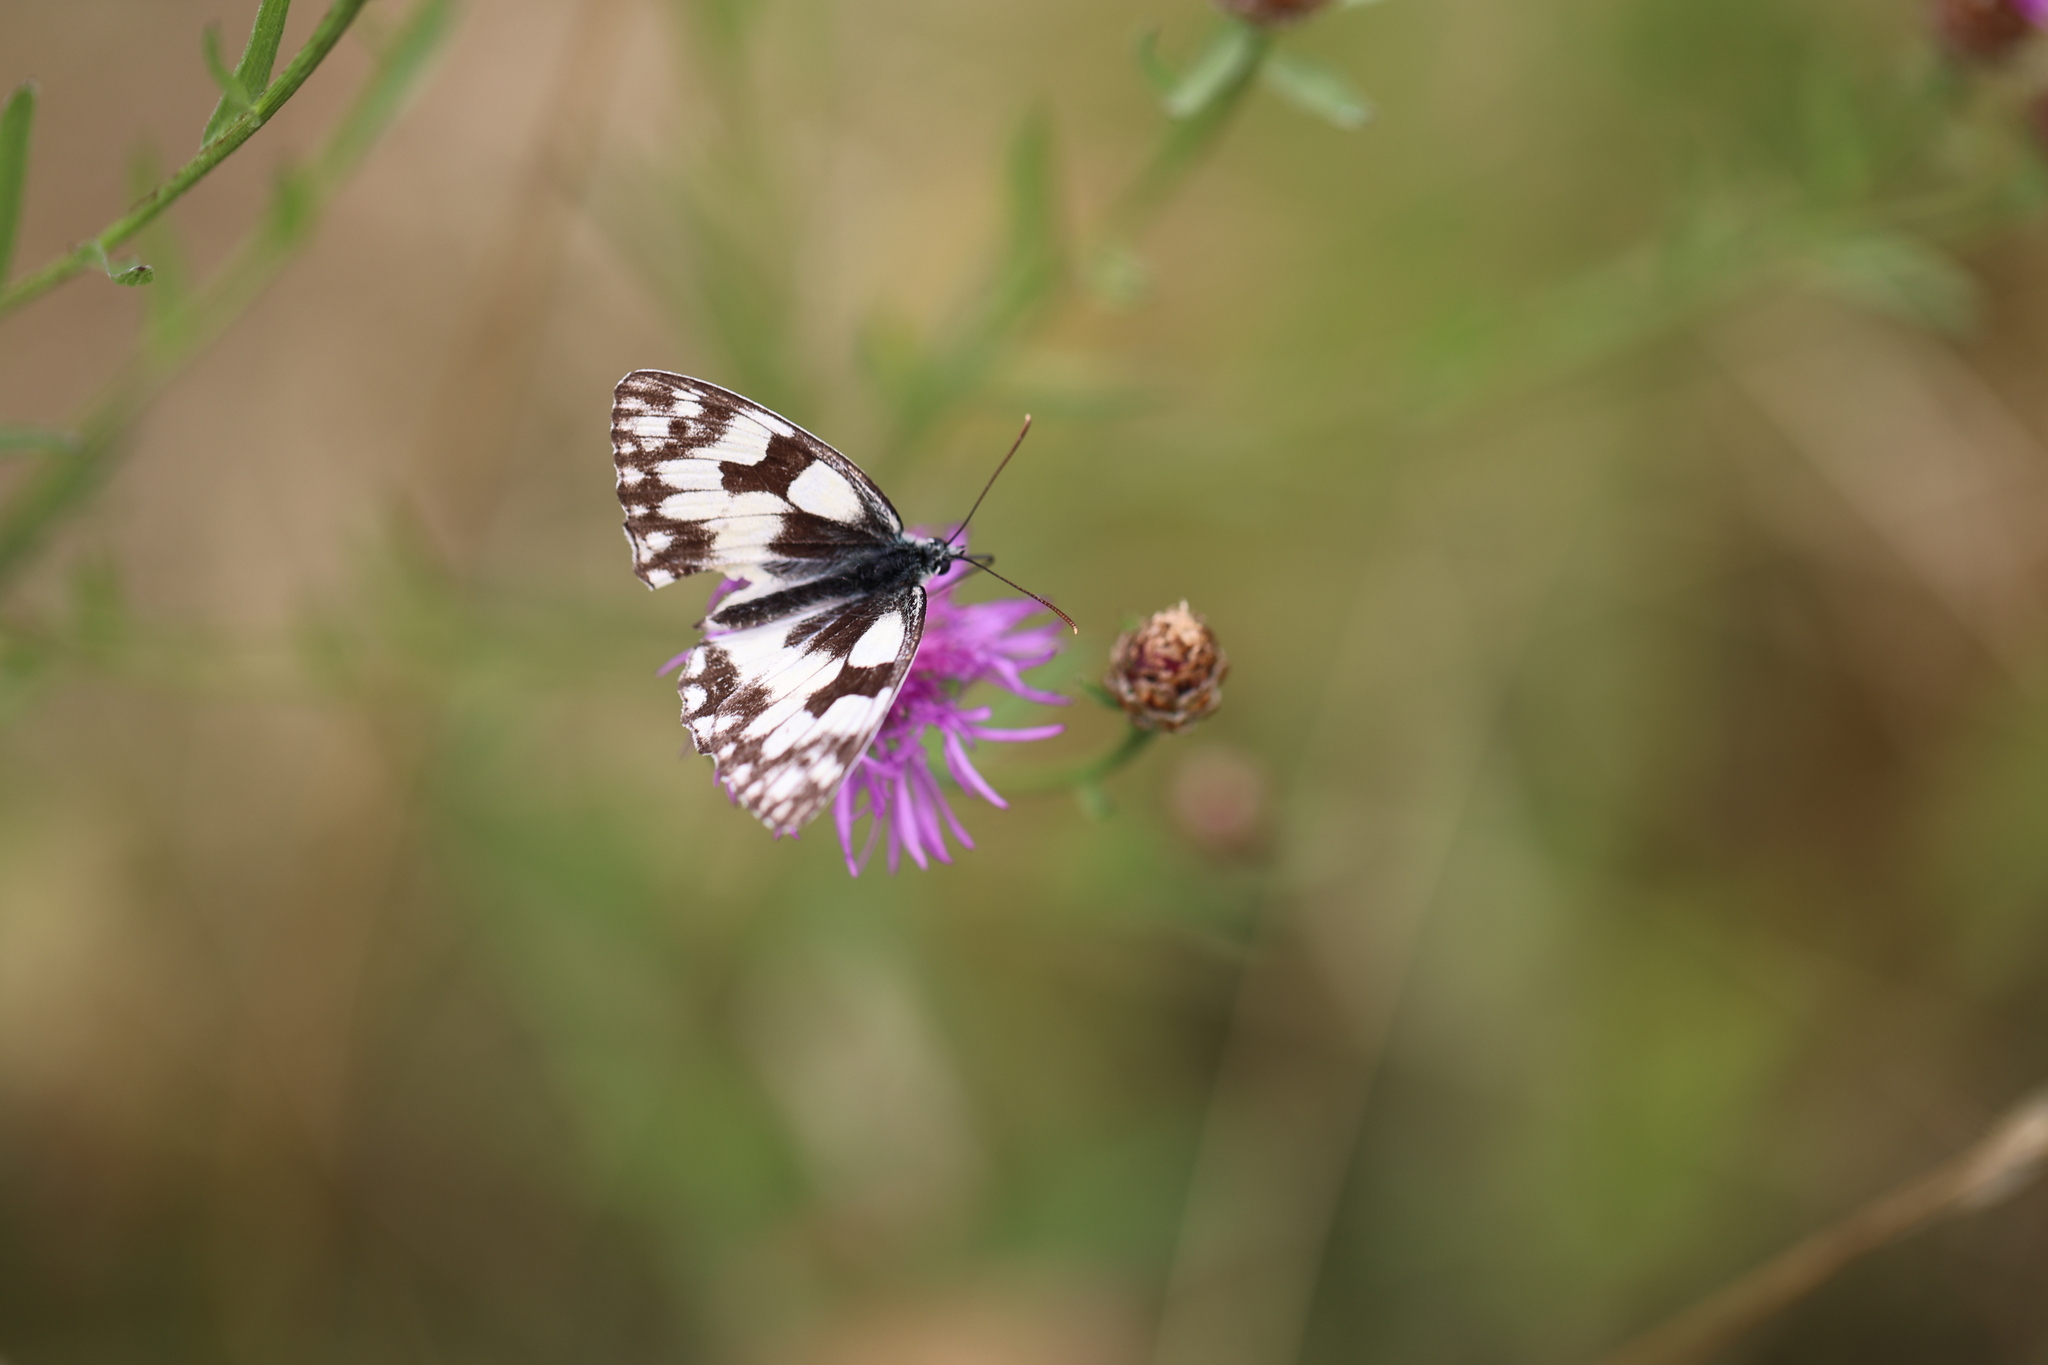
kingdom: Animalia
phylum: Arthropoda
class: Insecta
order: Lepidoptera
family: Nymphalidae
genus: Melanargia
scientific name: Melanargia galathea
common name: Marbled white
